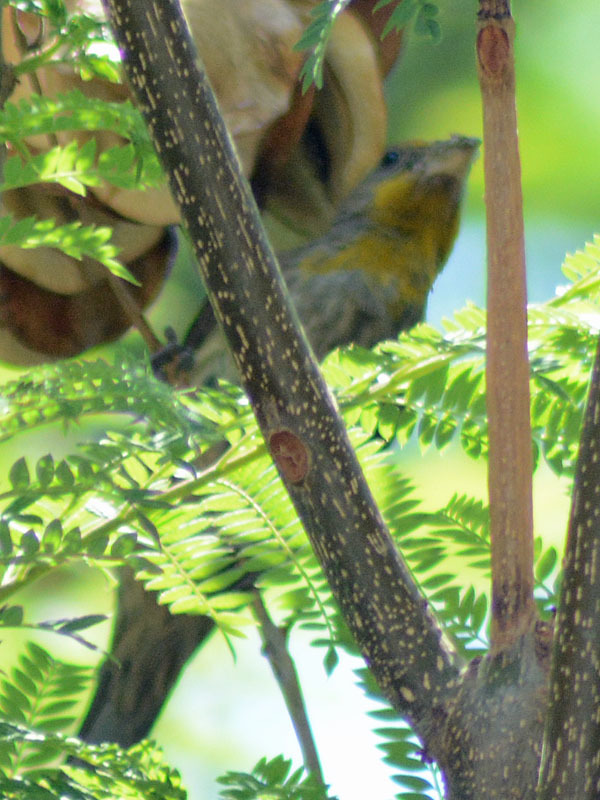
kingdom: Animalia
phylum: Chordata
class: Aves
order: Passeriformes
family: Fringillidae
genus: Haemorhous
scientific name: Haemorhous mexicanus
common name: House finch
